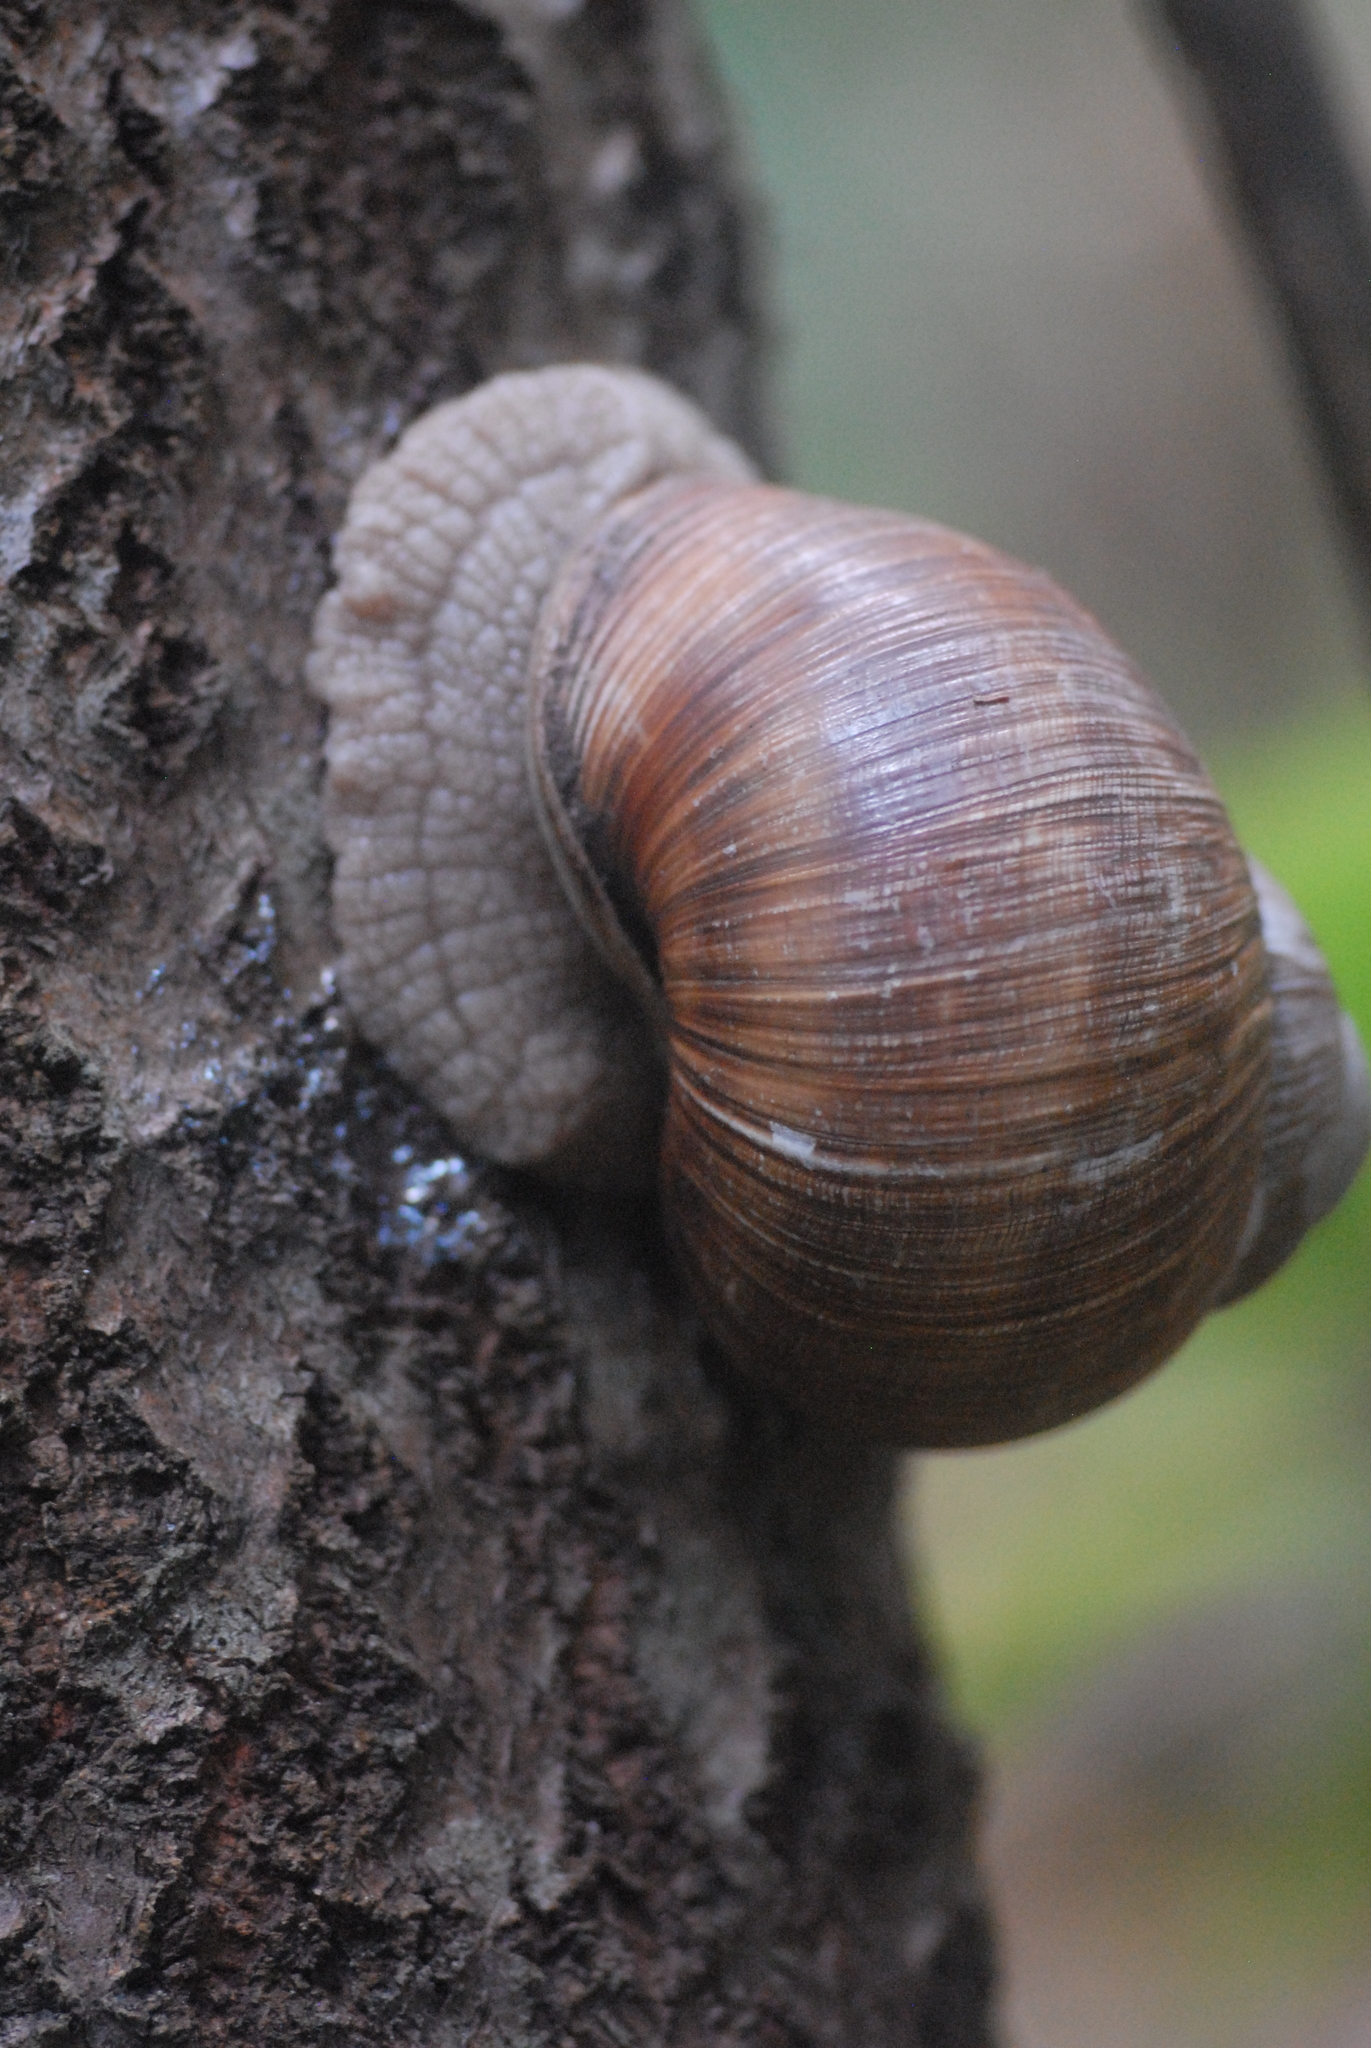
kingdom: Animalia
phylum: Mollusca
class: Gastropoda
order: Stylommatophora
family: Helicidae
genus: Helix
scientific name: Helix pomatia
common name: Roman snail
